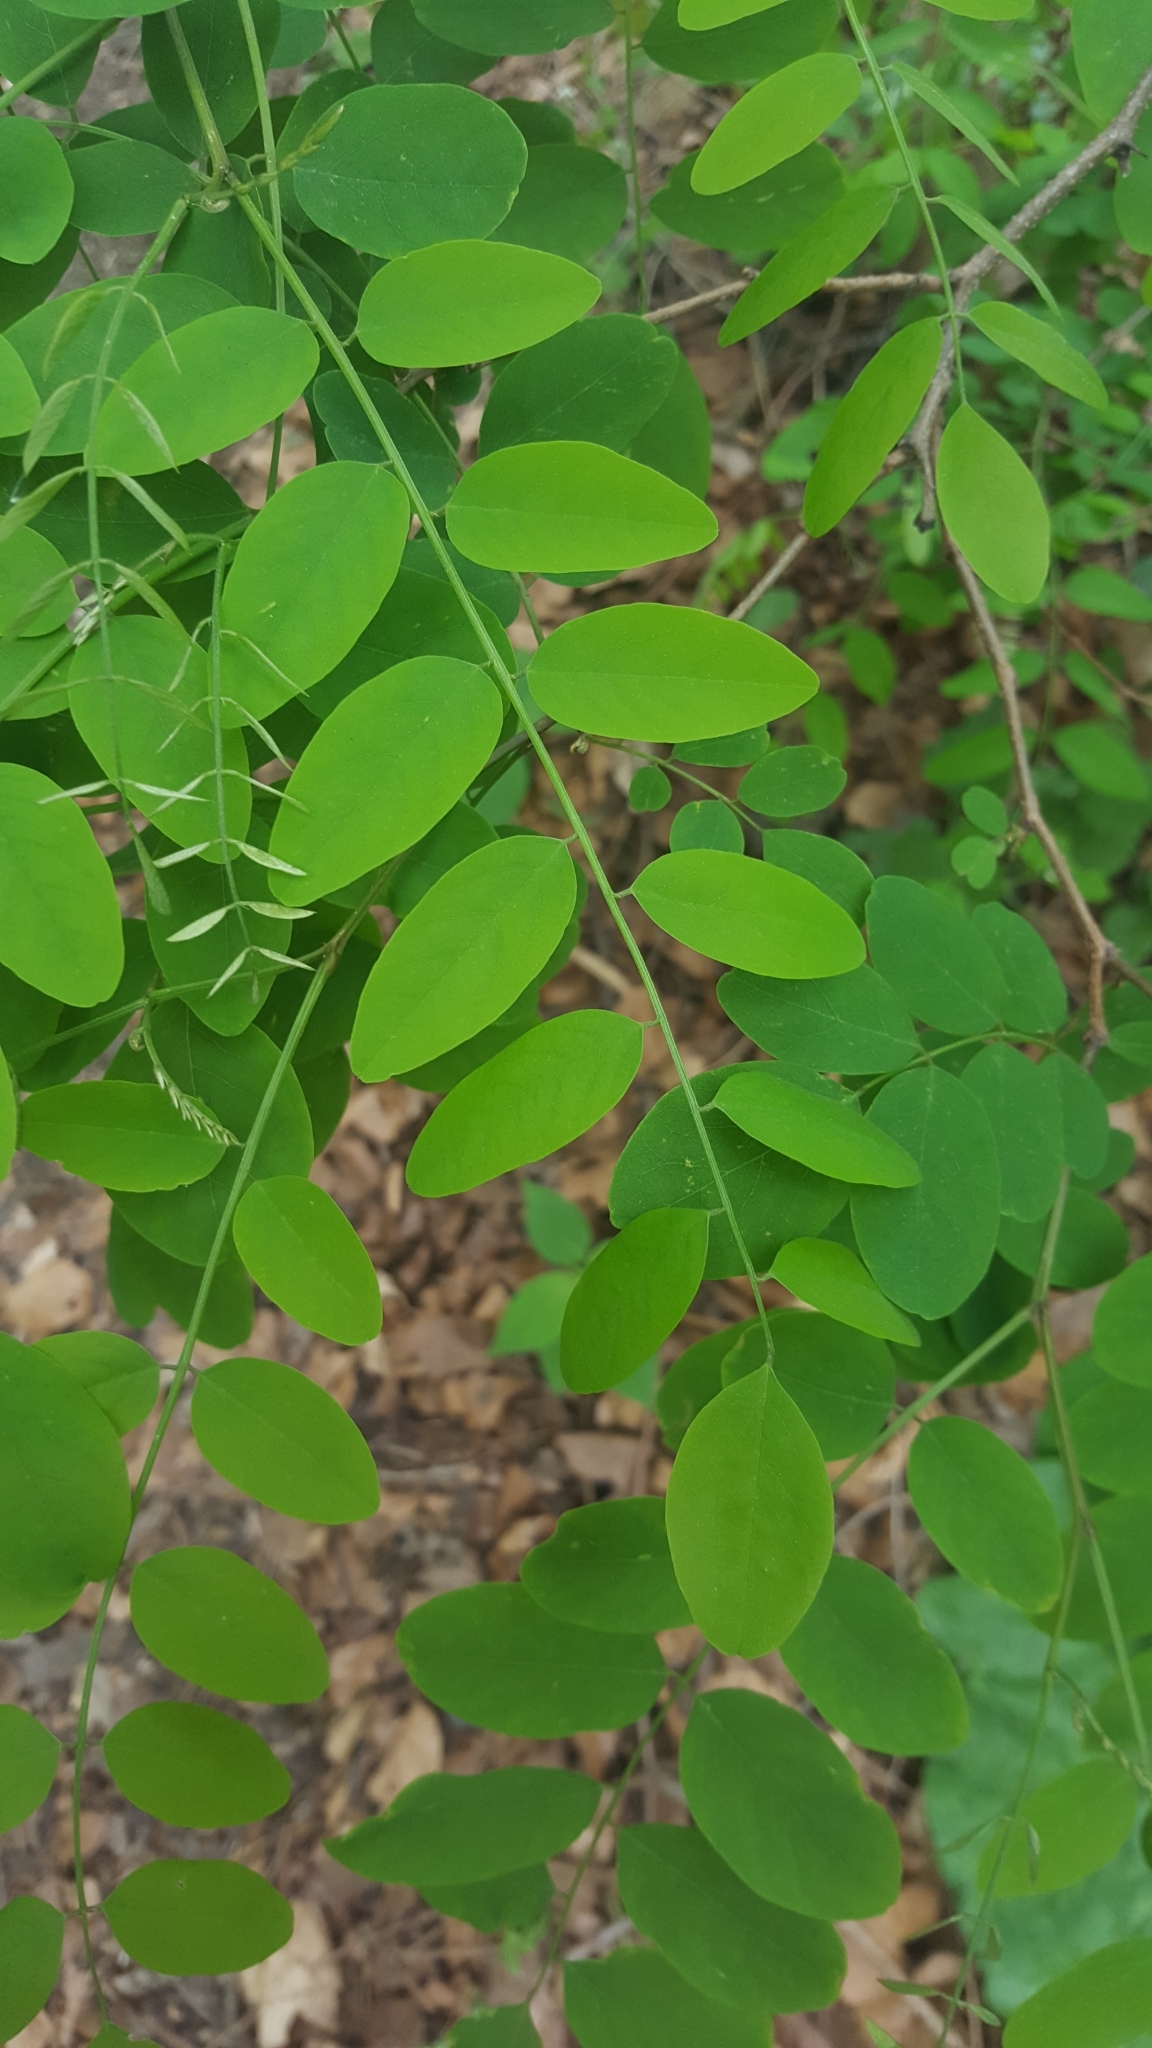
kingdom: Plantae
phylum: Tracheophyta
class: Magnoliopsida
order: Fabales
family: Fabaceae
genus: Robinia
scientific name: Robinia pseudoacacia
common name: Black locust
